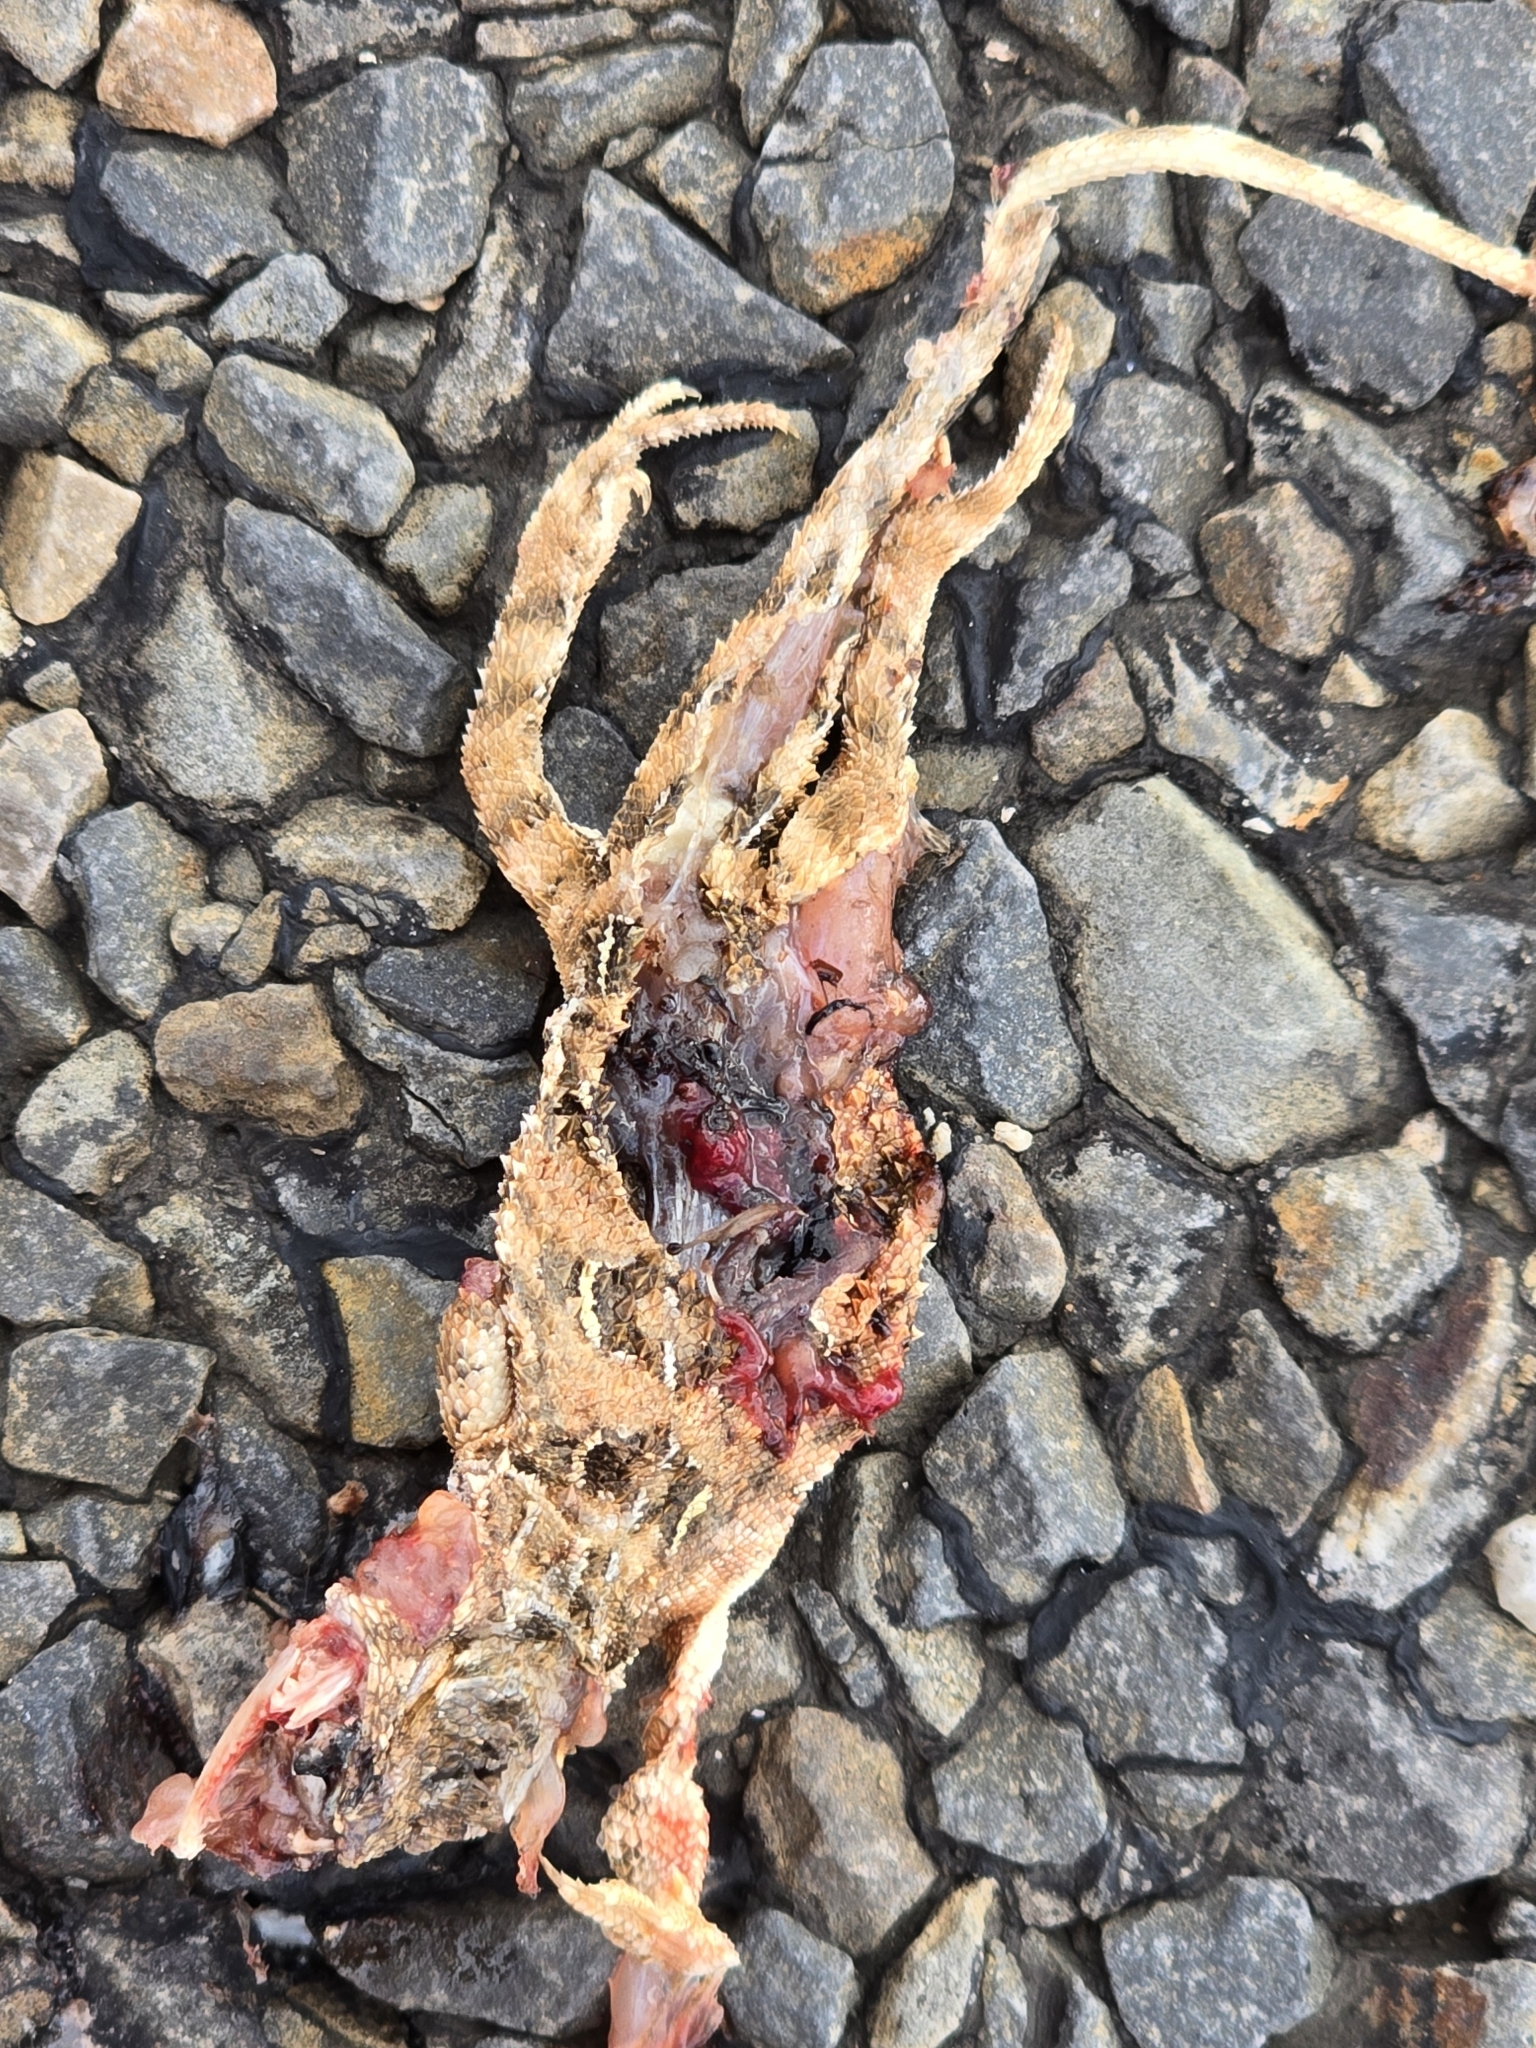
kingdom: Animalia
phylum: Chordata
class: Squamata
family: Agamidae
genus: Tympanocryptis
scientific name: Tympanocryptis petersi
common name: Lined earless dragon
